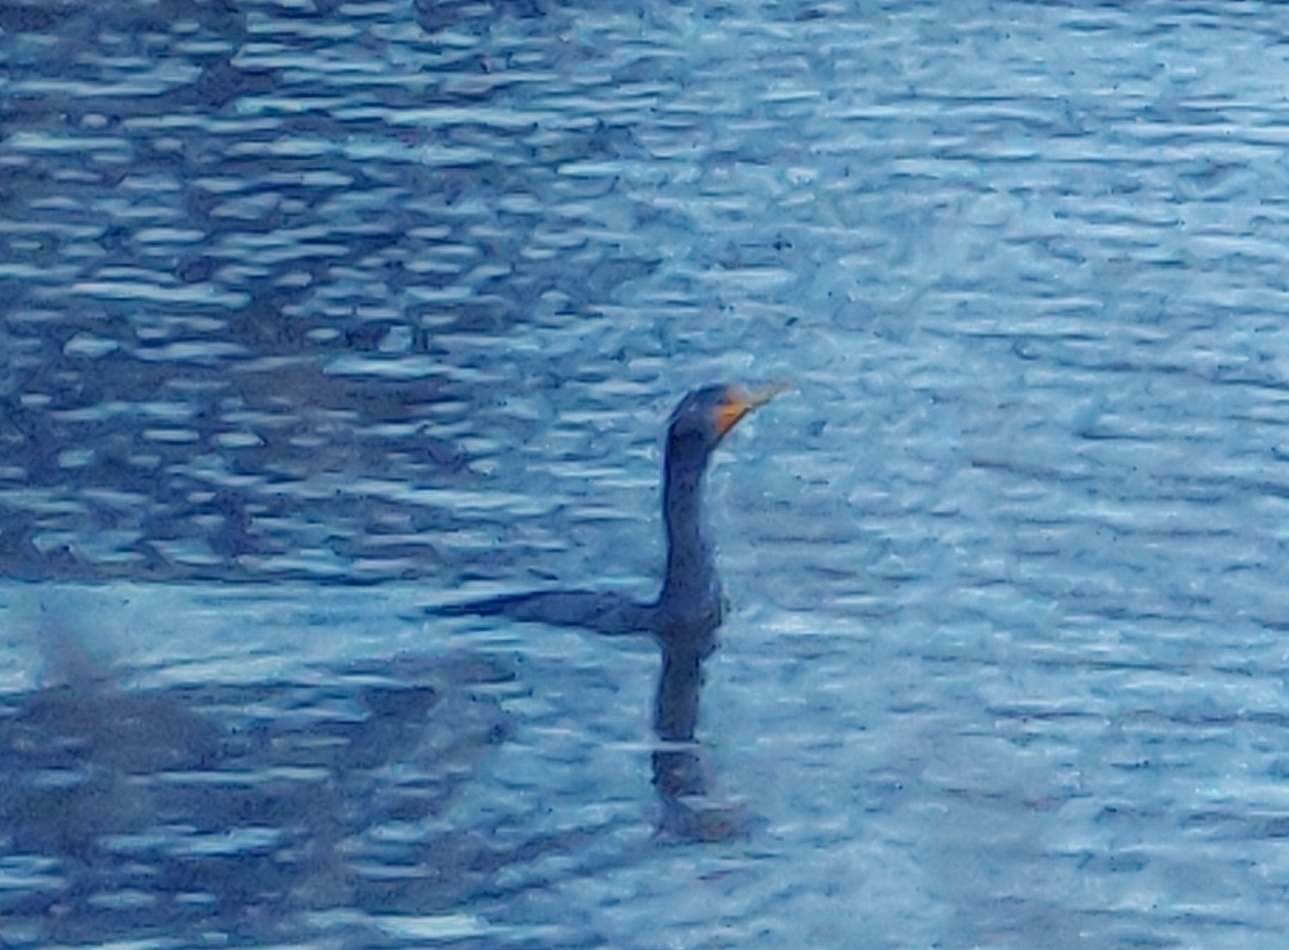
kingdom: Animalia
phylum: Chordata
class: Aves
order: Suliformes
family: Phalacrocoracidae
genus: Phalacrocorax
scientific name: Phalacrocorax auritus
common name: Double-crested cormorant
